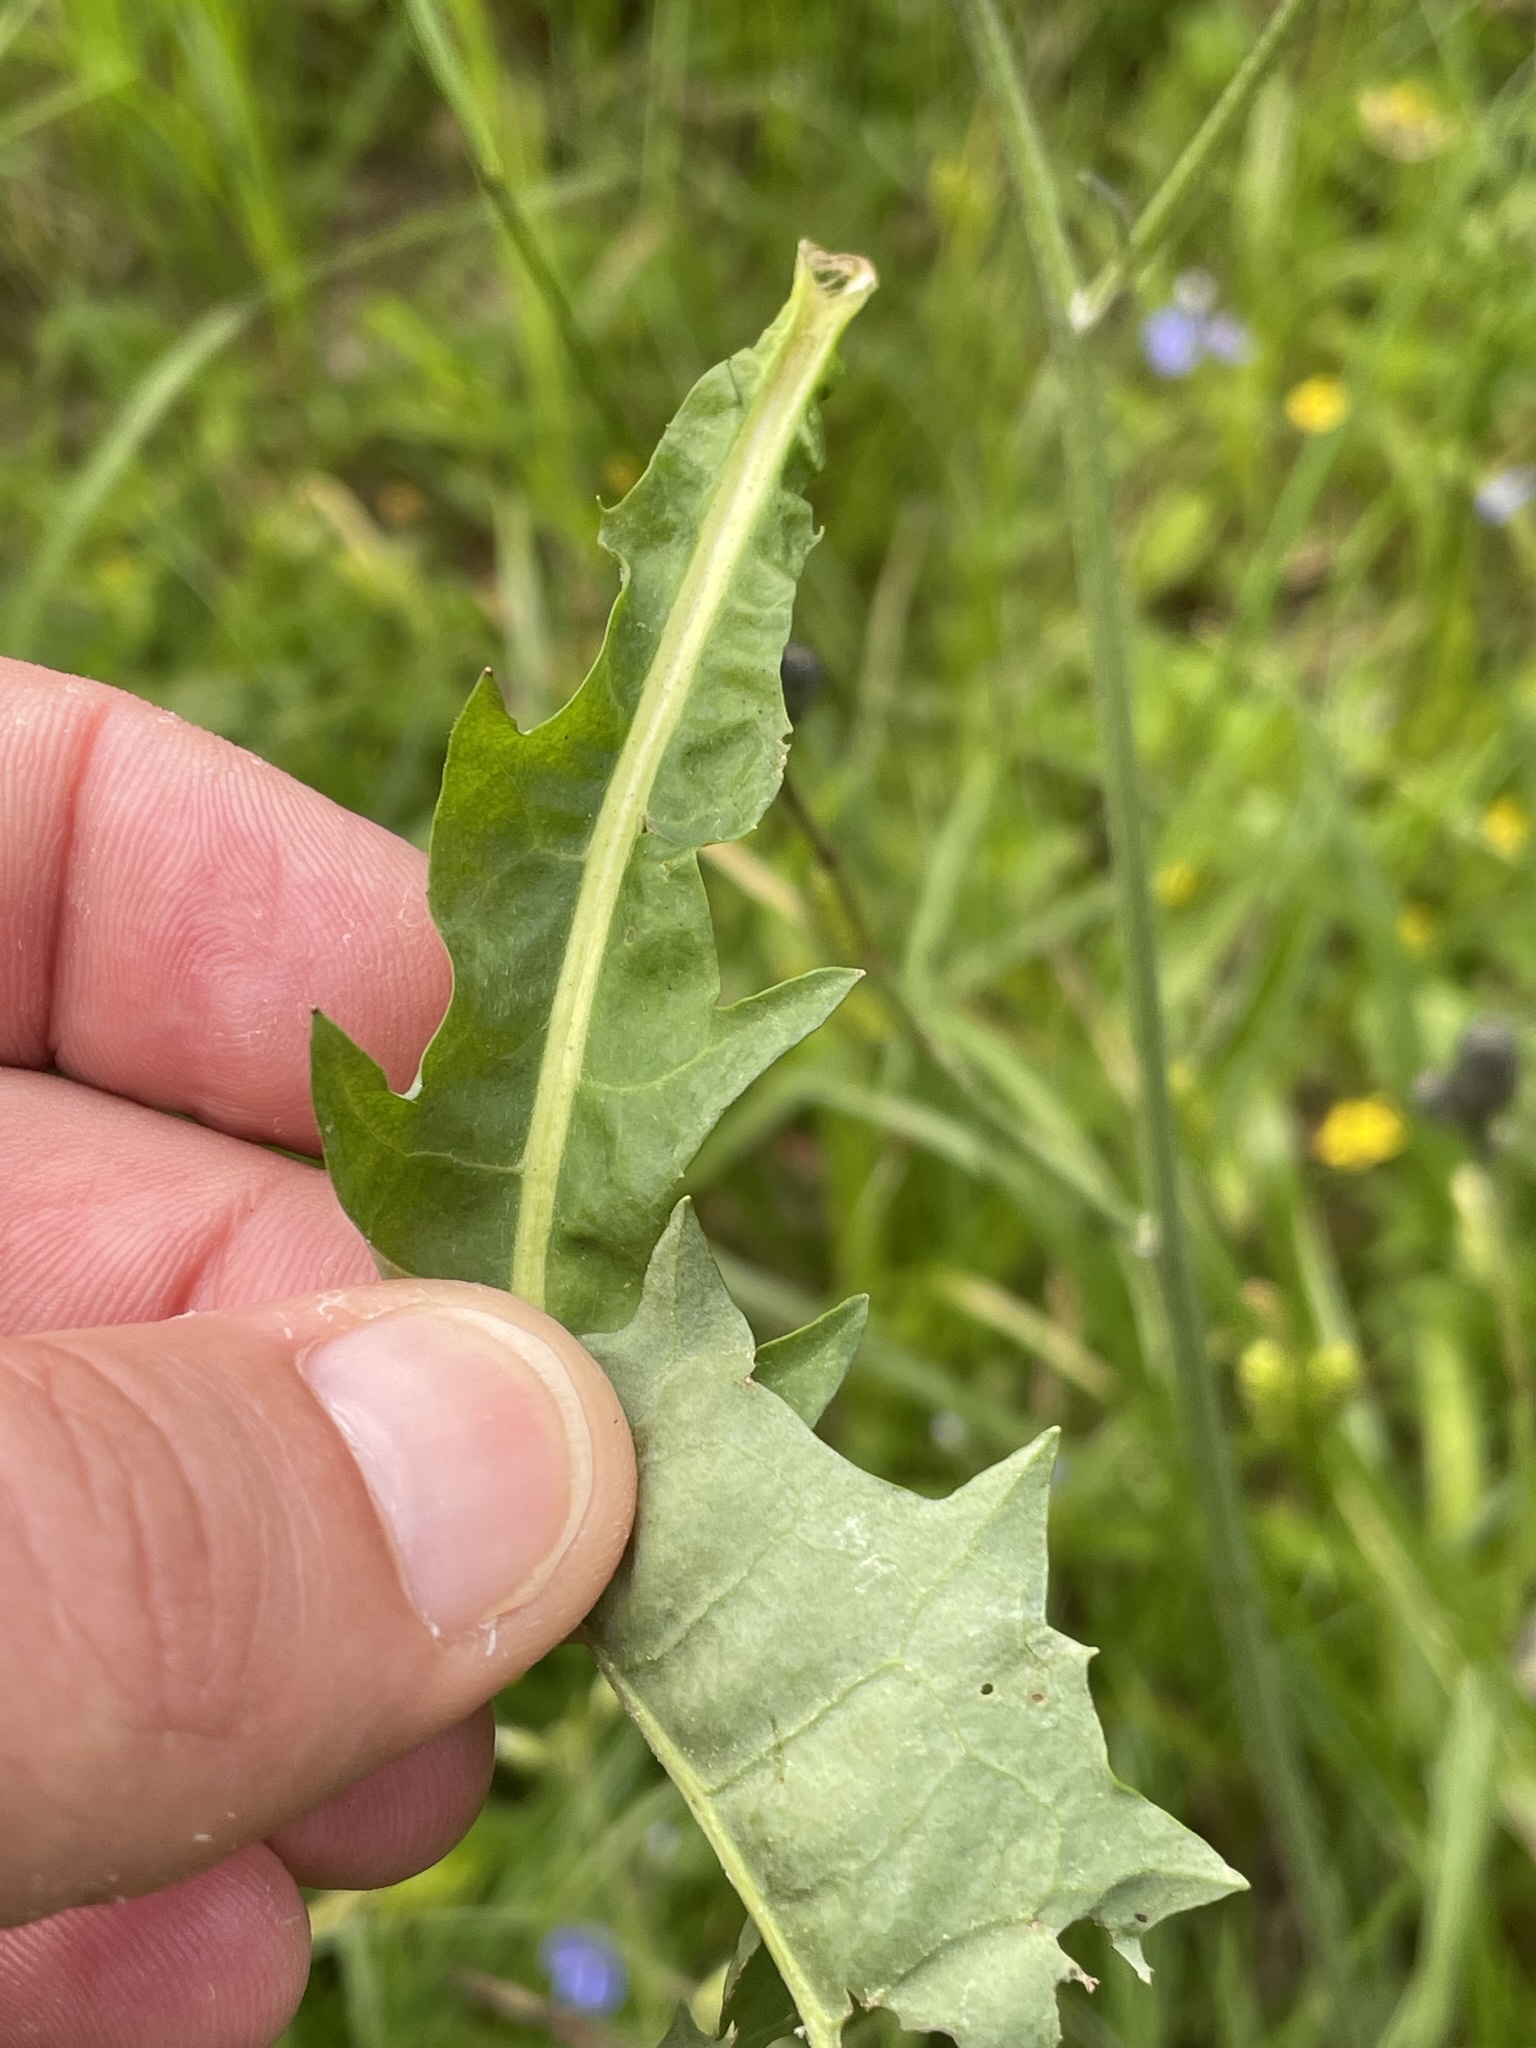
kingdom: Plantae
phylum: Tracheophyta
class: Magnoliopsida
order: Asterales
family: Asteraceae
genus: Willemetia
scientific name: Willemetia stipitata
